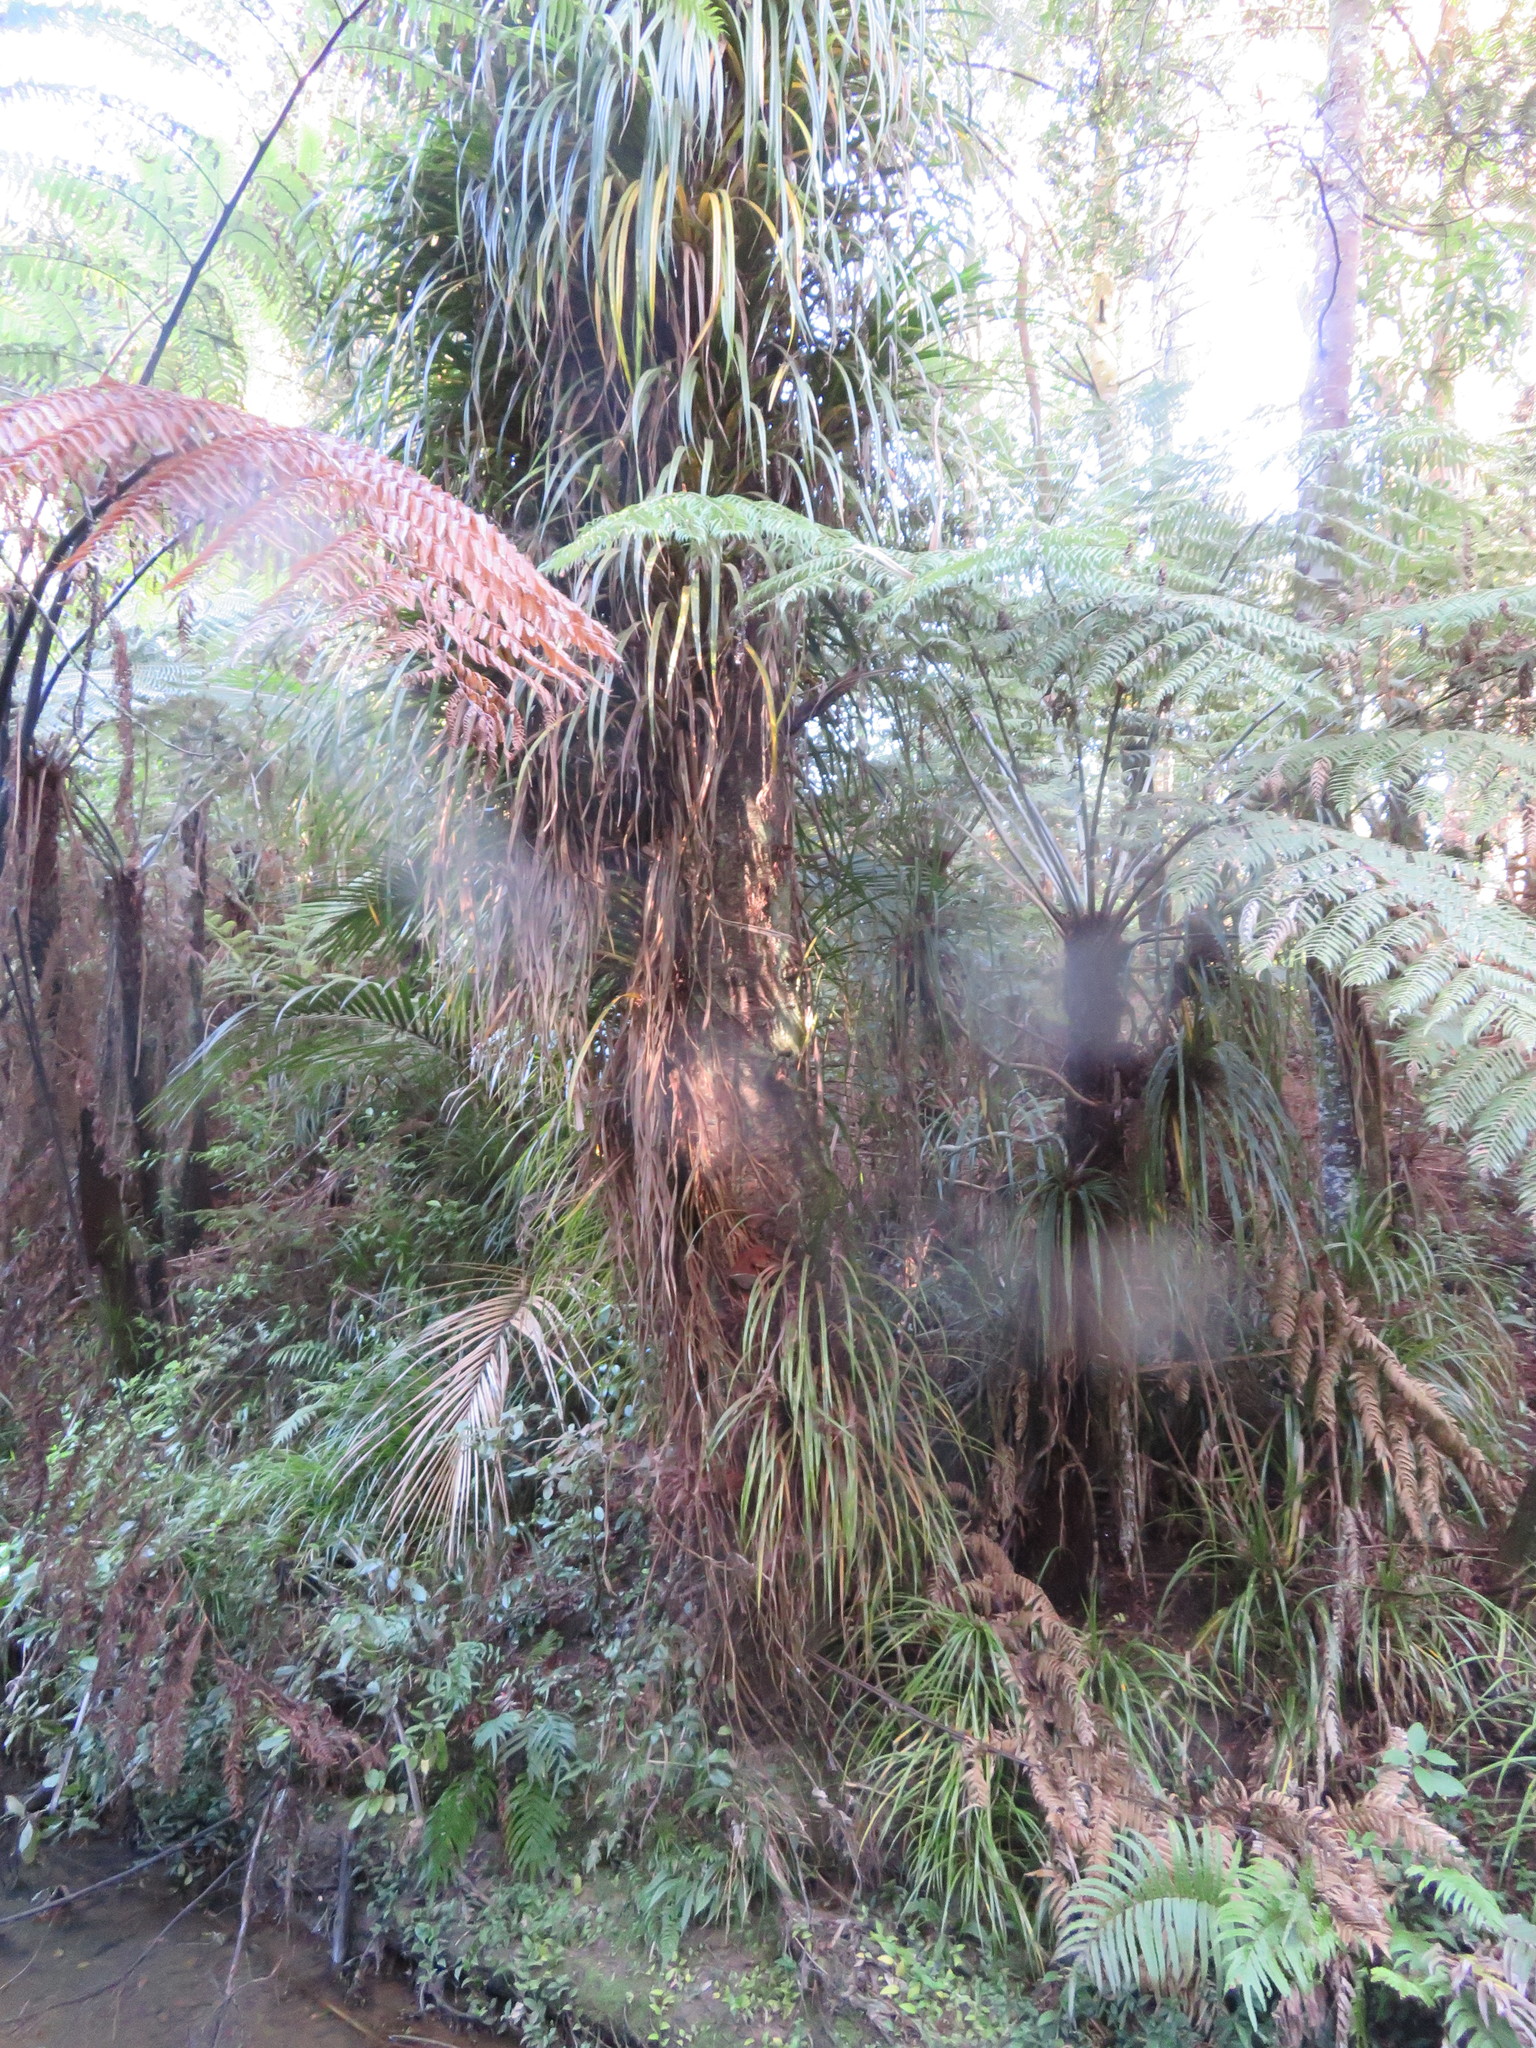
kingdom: Plantae
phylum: Tracheophyta
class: Liliopsida
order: Pandanales
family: Pandanaceae
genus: Freycinetia
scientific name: Freycinetia banksii
